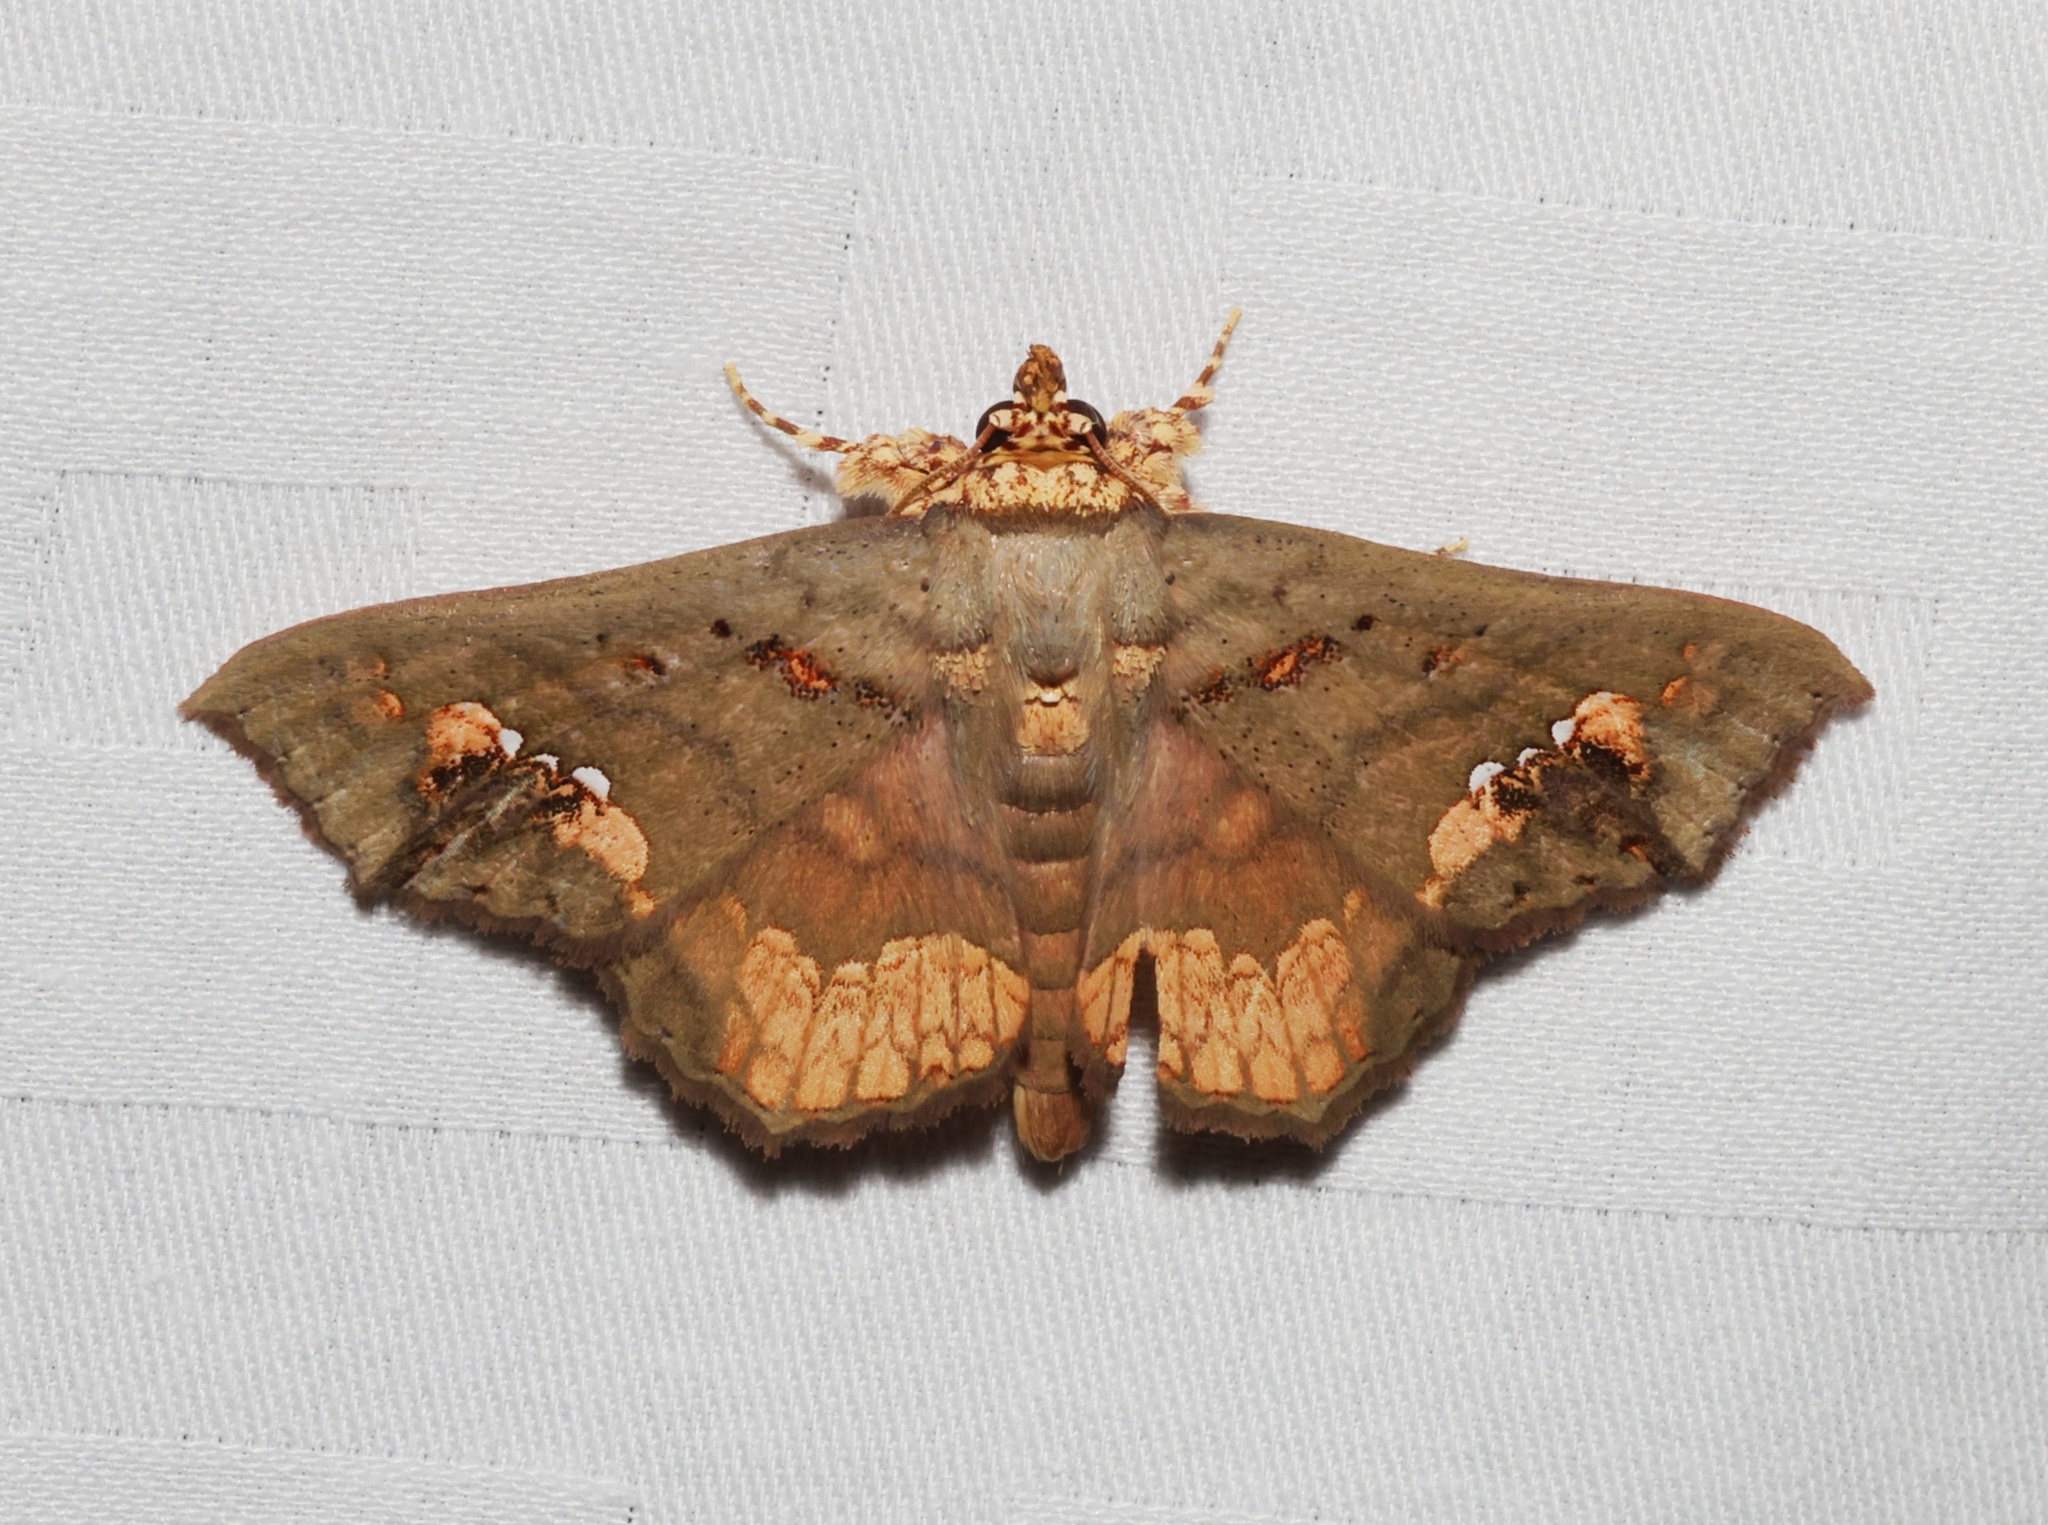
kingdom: Animalia
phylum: Arthropoda
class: Insecta
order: Lepidoptera
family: Erebidae
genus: Lopharthrum
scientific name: Lopharthrum comprimens
